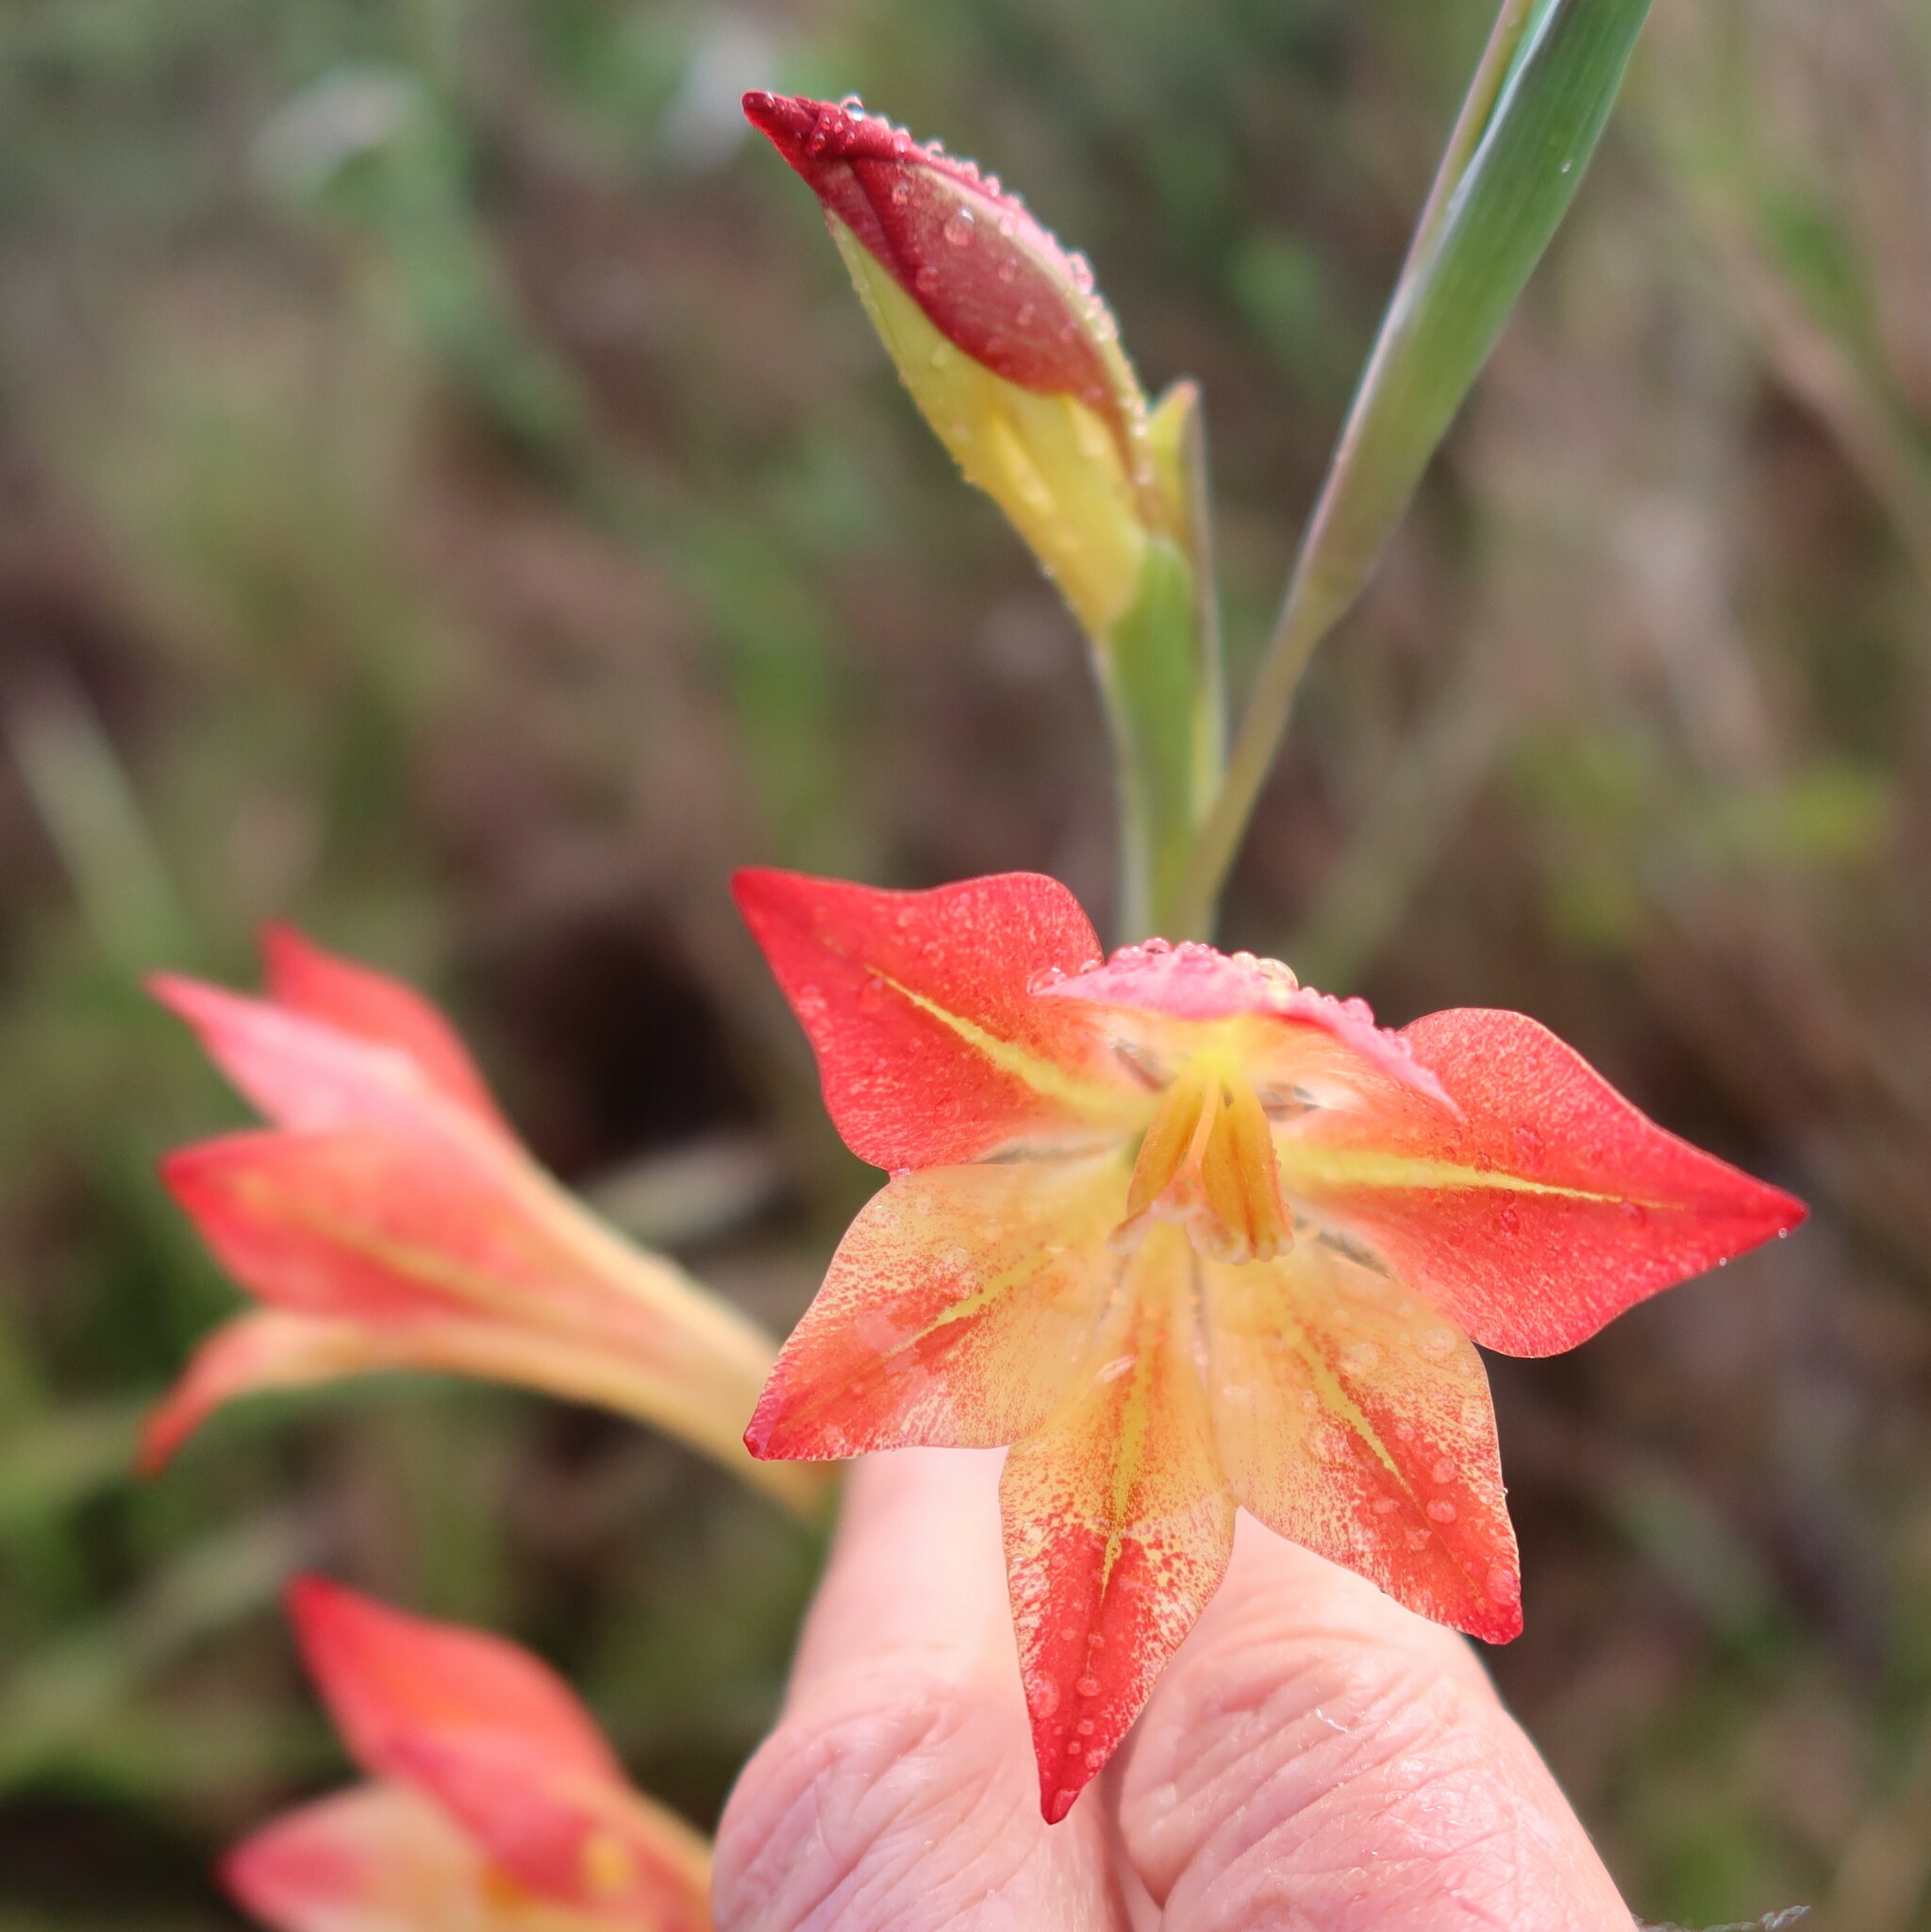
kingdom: Plantae
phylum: Tracheophyta
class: Liliopsida
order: Asparagales
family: Iridaceae
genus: Gladiolus
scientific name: Gladiolus
